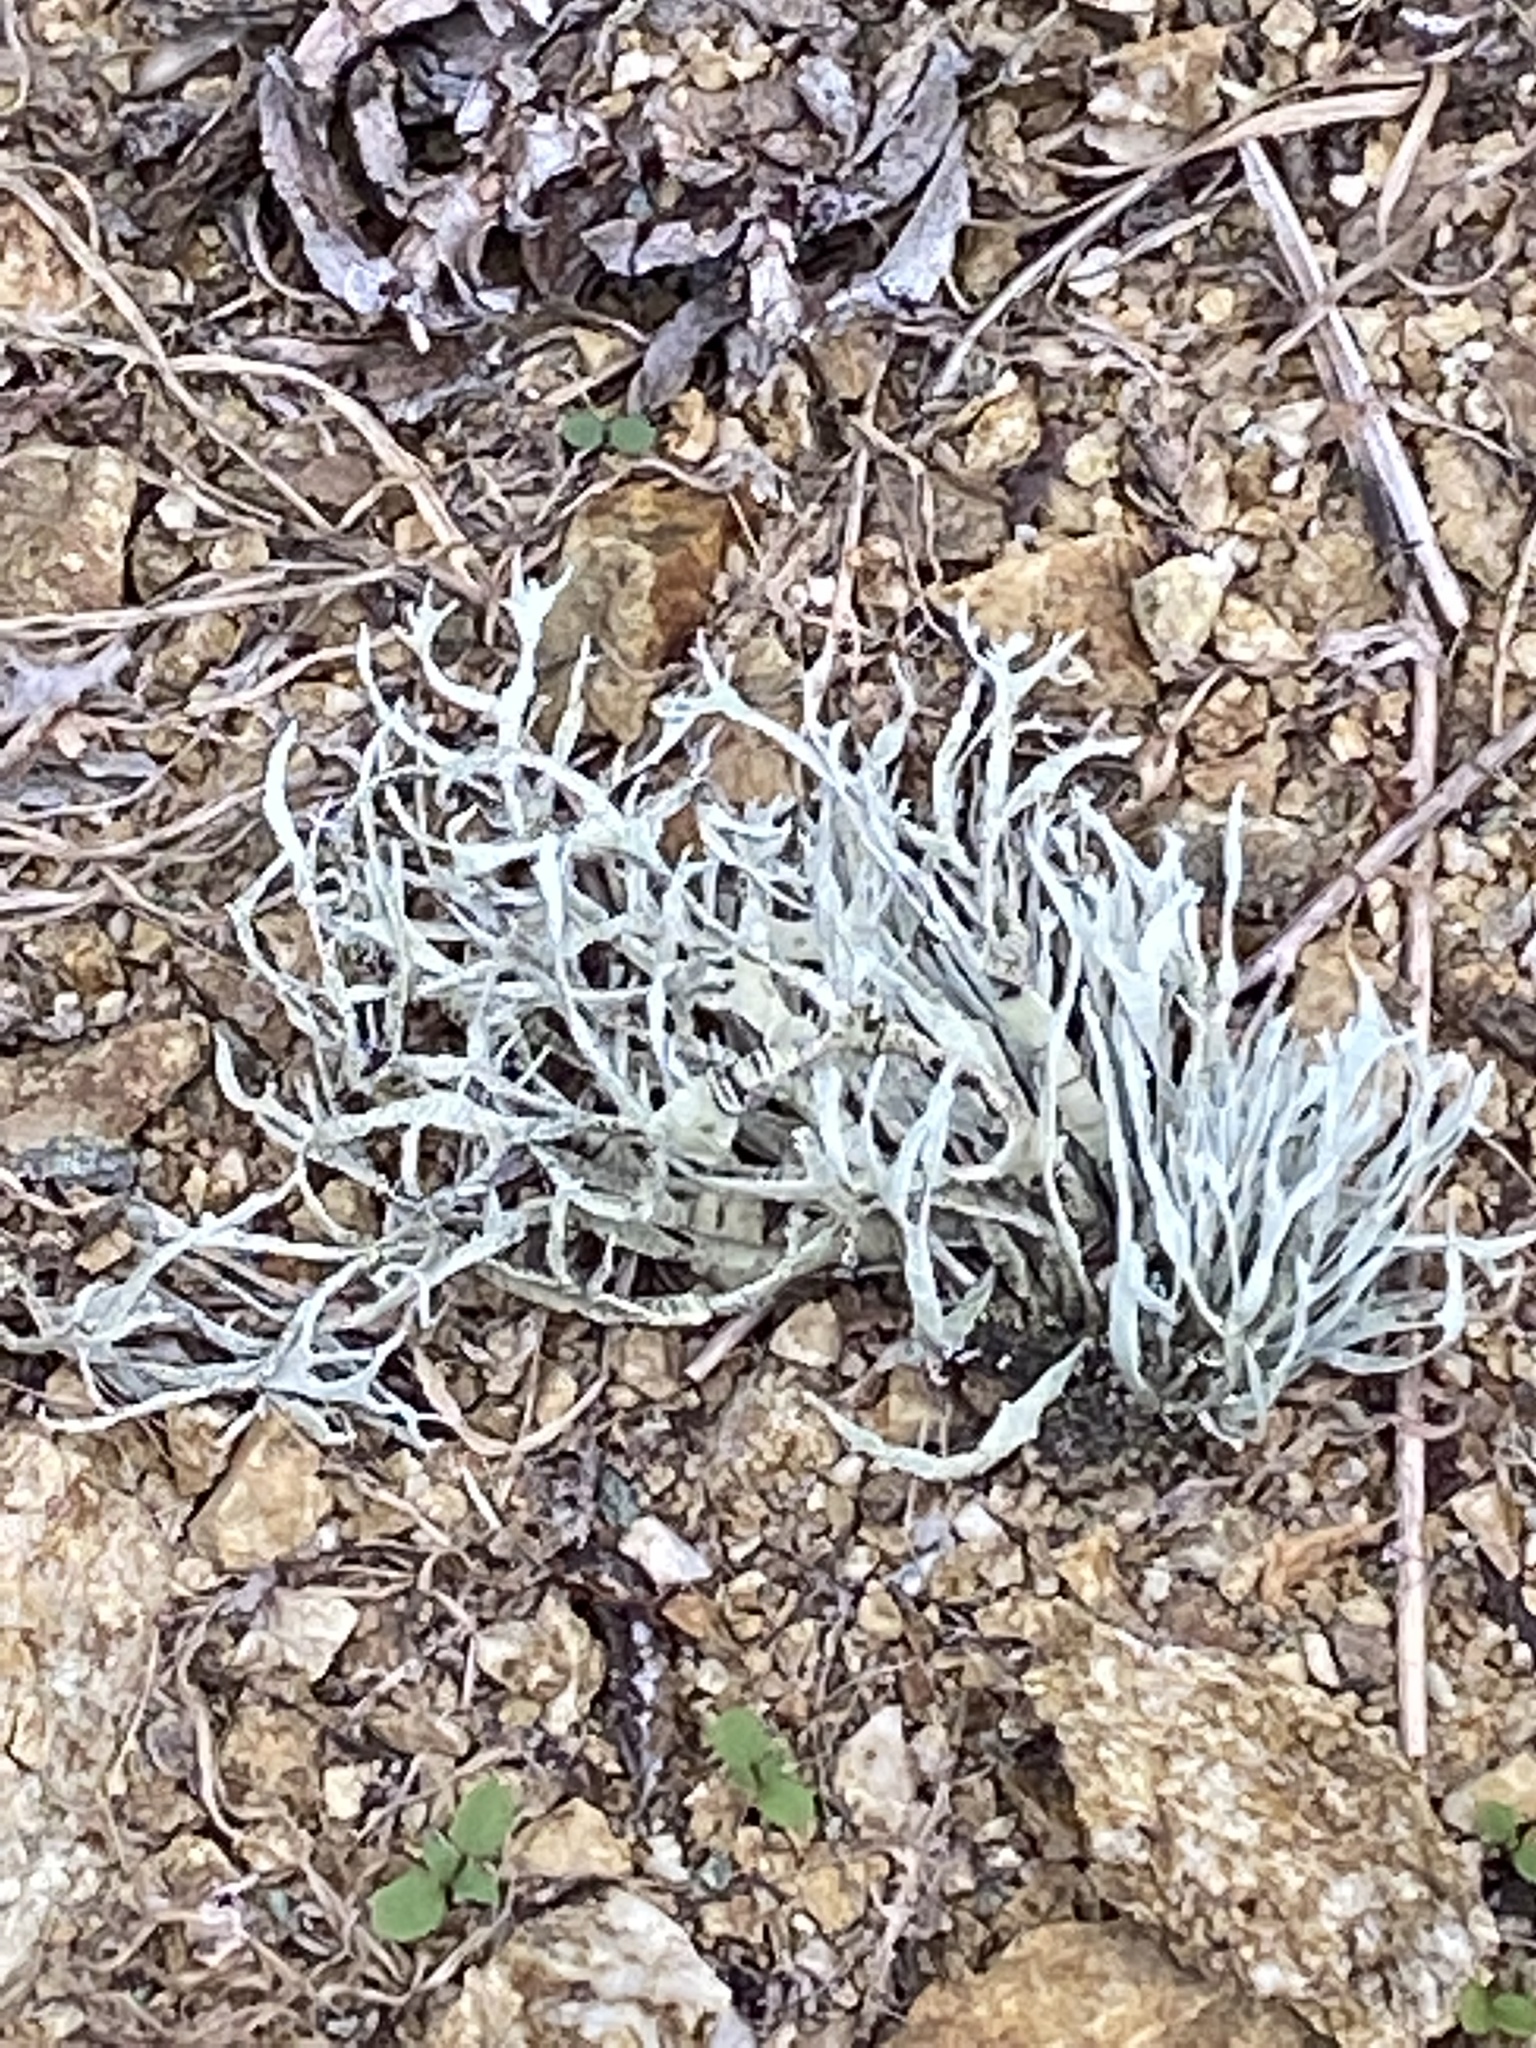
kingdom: Fungi
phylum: Ascomycota
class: Lecanoromycetes
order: Lecanorales
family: Ramalinaceae
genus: Niebla
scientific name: Niebla homalea
